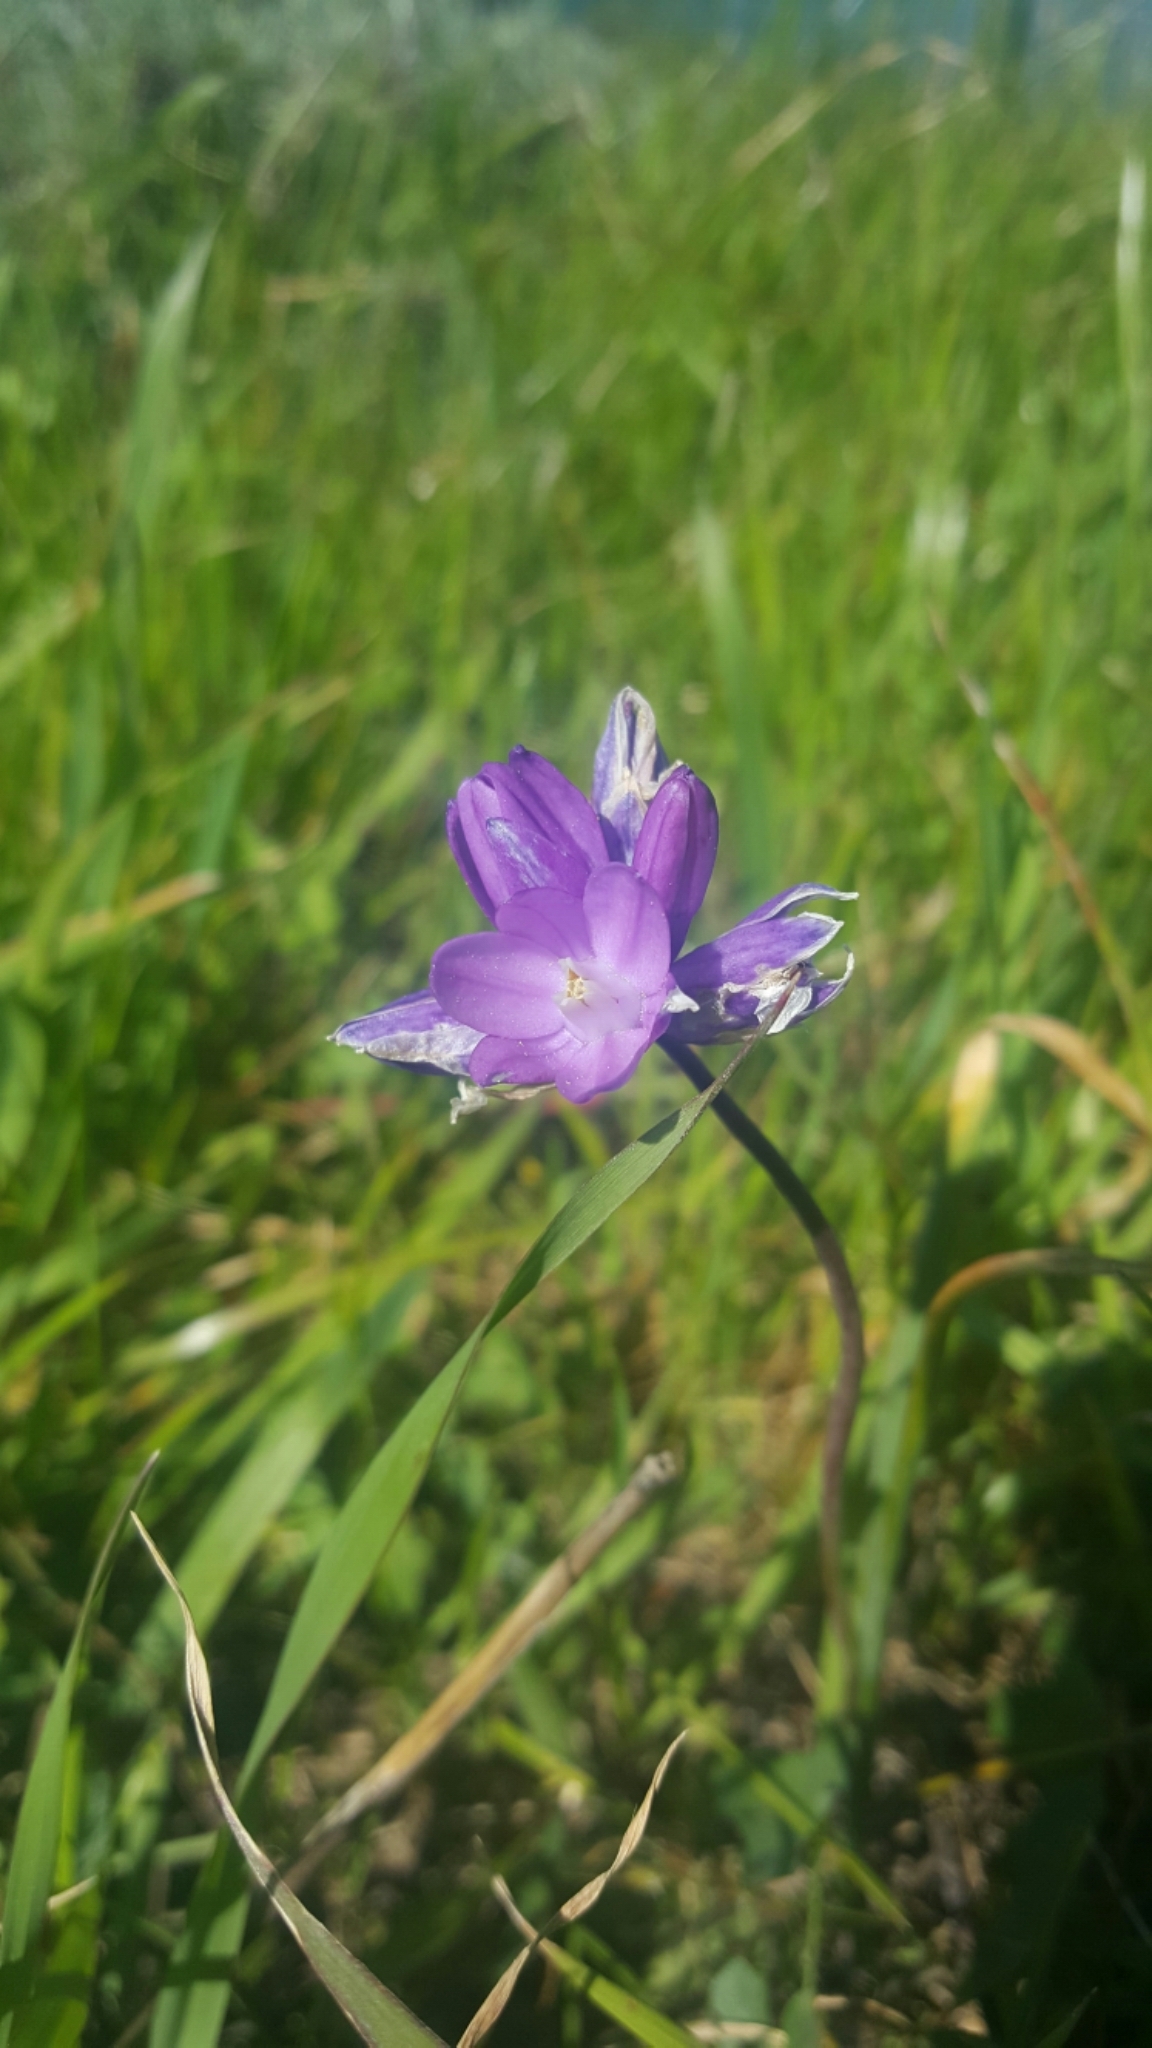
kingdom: Plantae
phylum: Tracheophyta
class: Liliopsida
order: Asparagales
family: Asparagaceae
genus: Dipterostemon
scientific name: Dipterostemon capitatus
